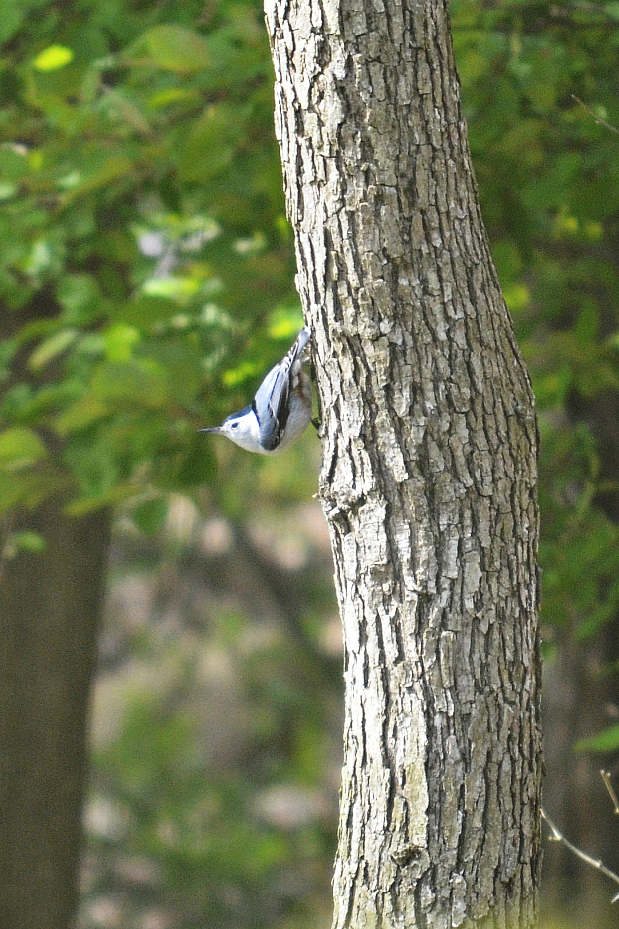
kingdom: Animalia
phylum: Chordata
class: Aves
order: Passeriformes
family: Sittidae
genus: Sitta
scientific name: Sitta carolinensis
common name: White-breasted nuthatch
